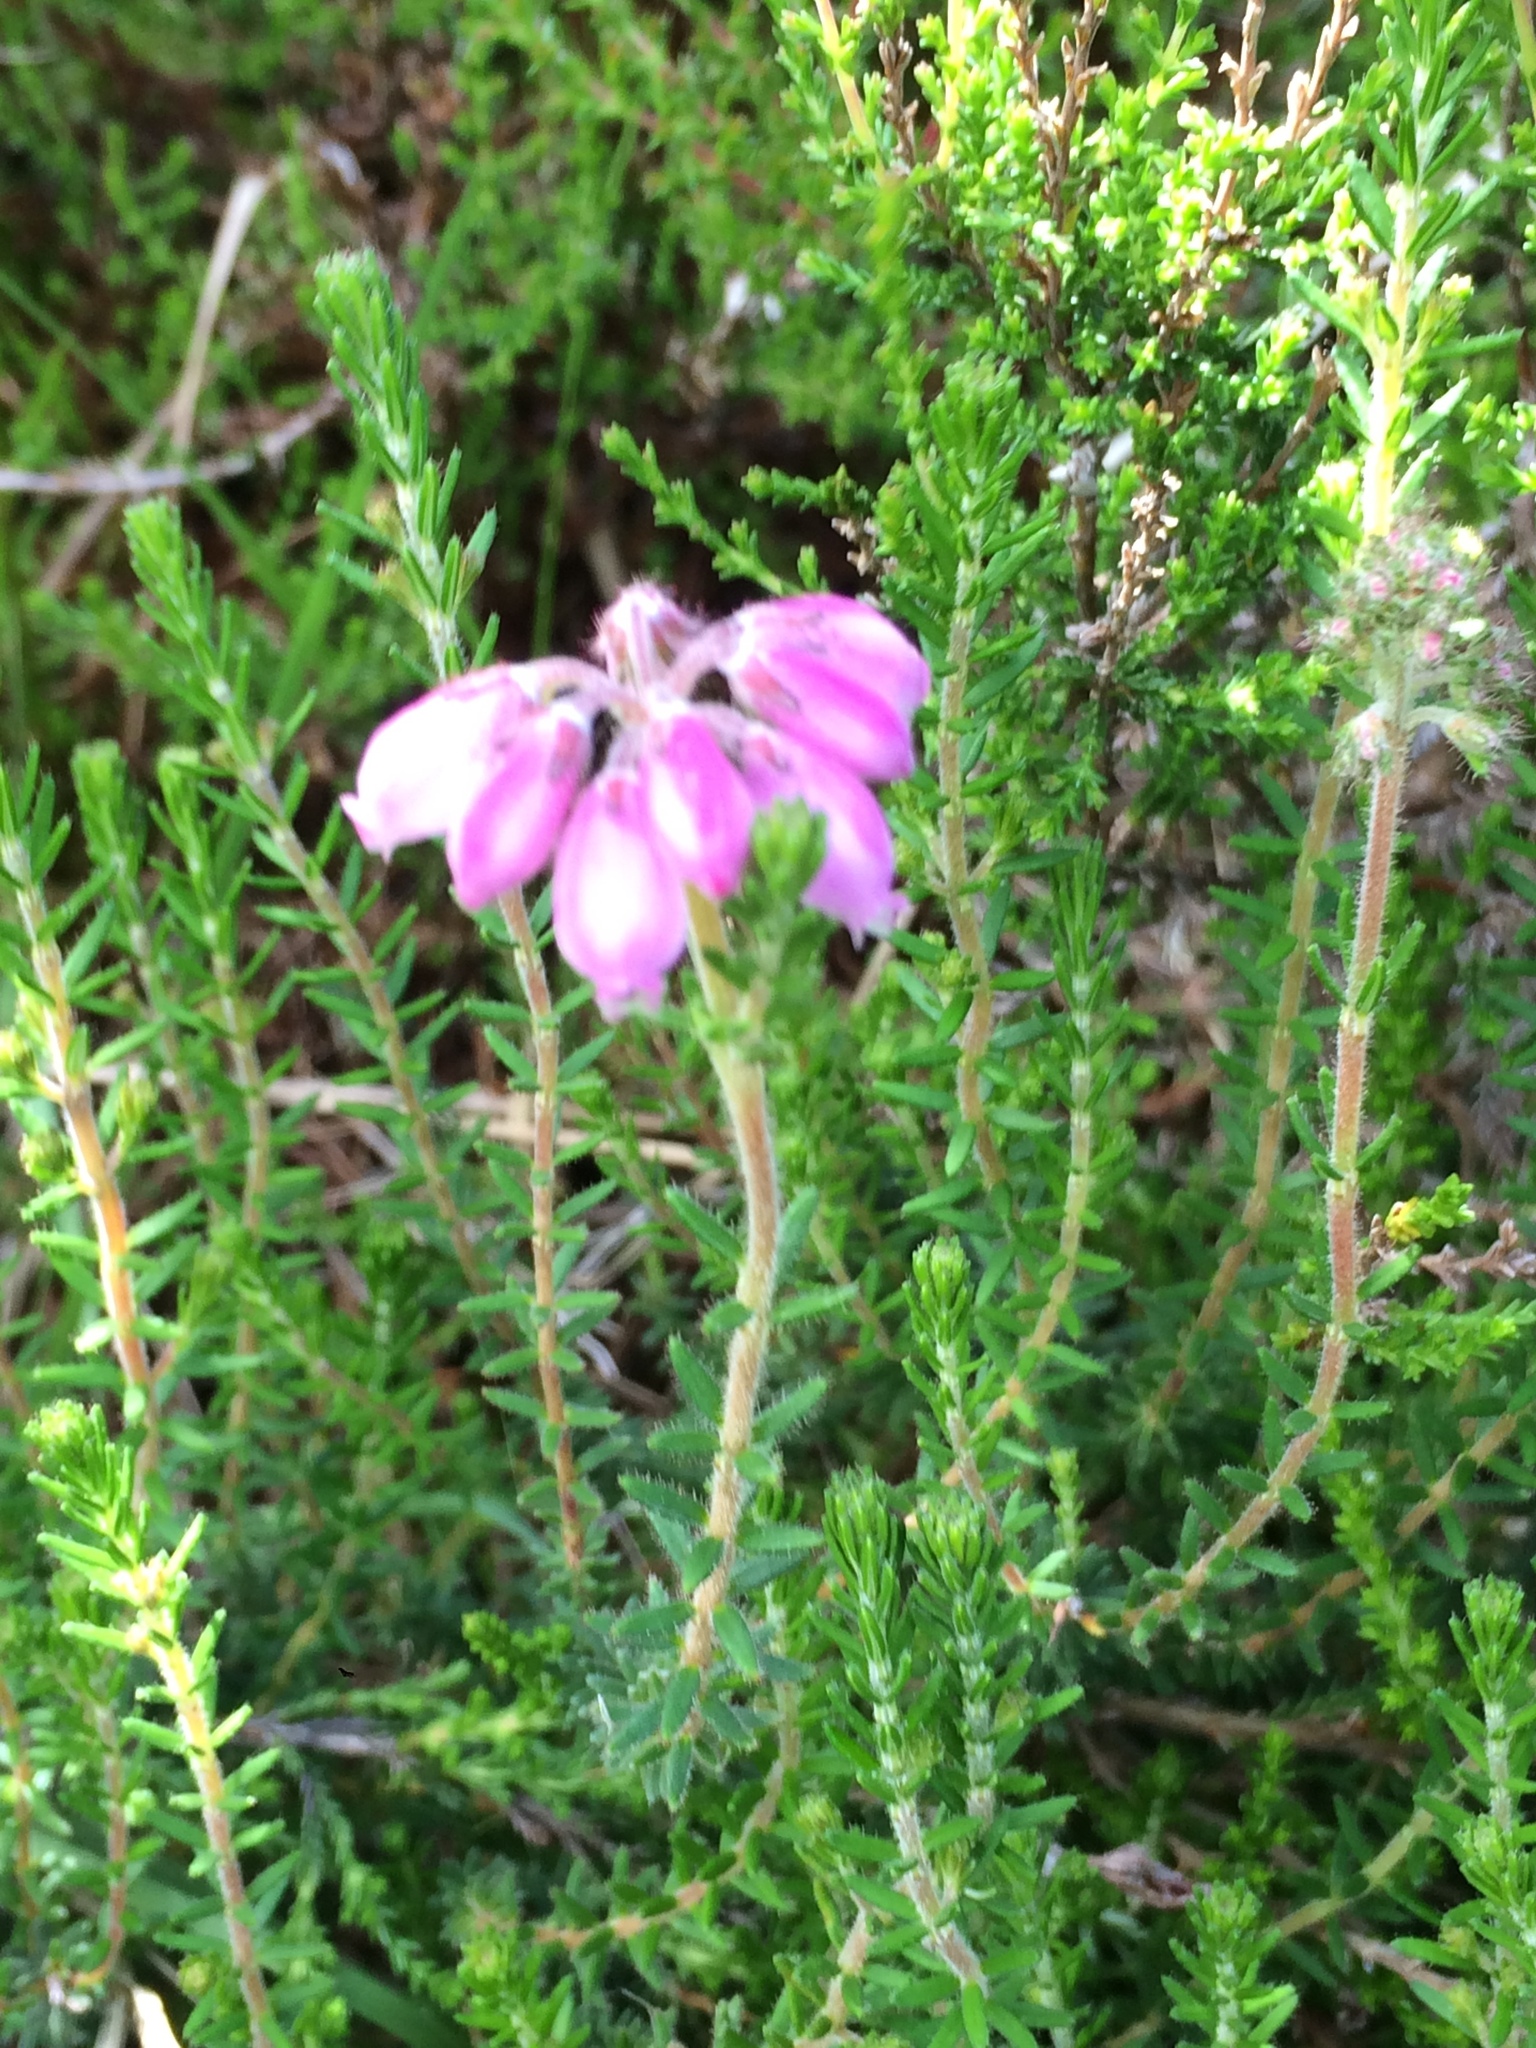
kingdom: Plantae
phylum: Tracheophyta
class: Magnoliopsida
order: Ericales
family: Ericaceae
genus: Erica
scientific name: Erica tetralix
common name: Cross-leaved heath
